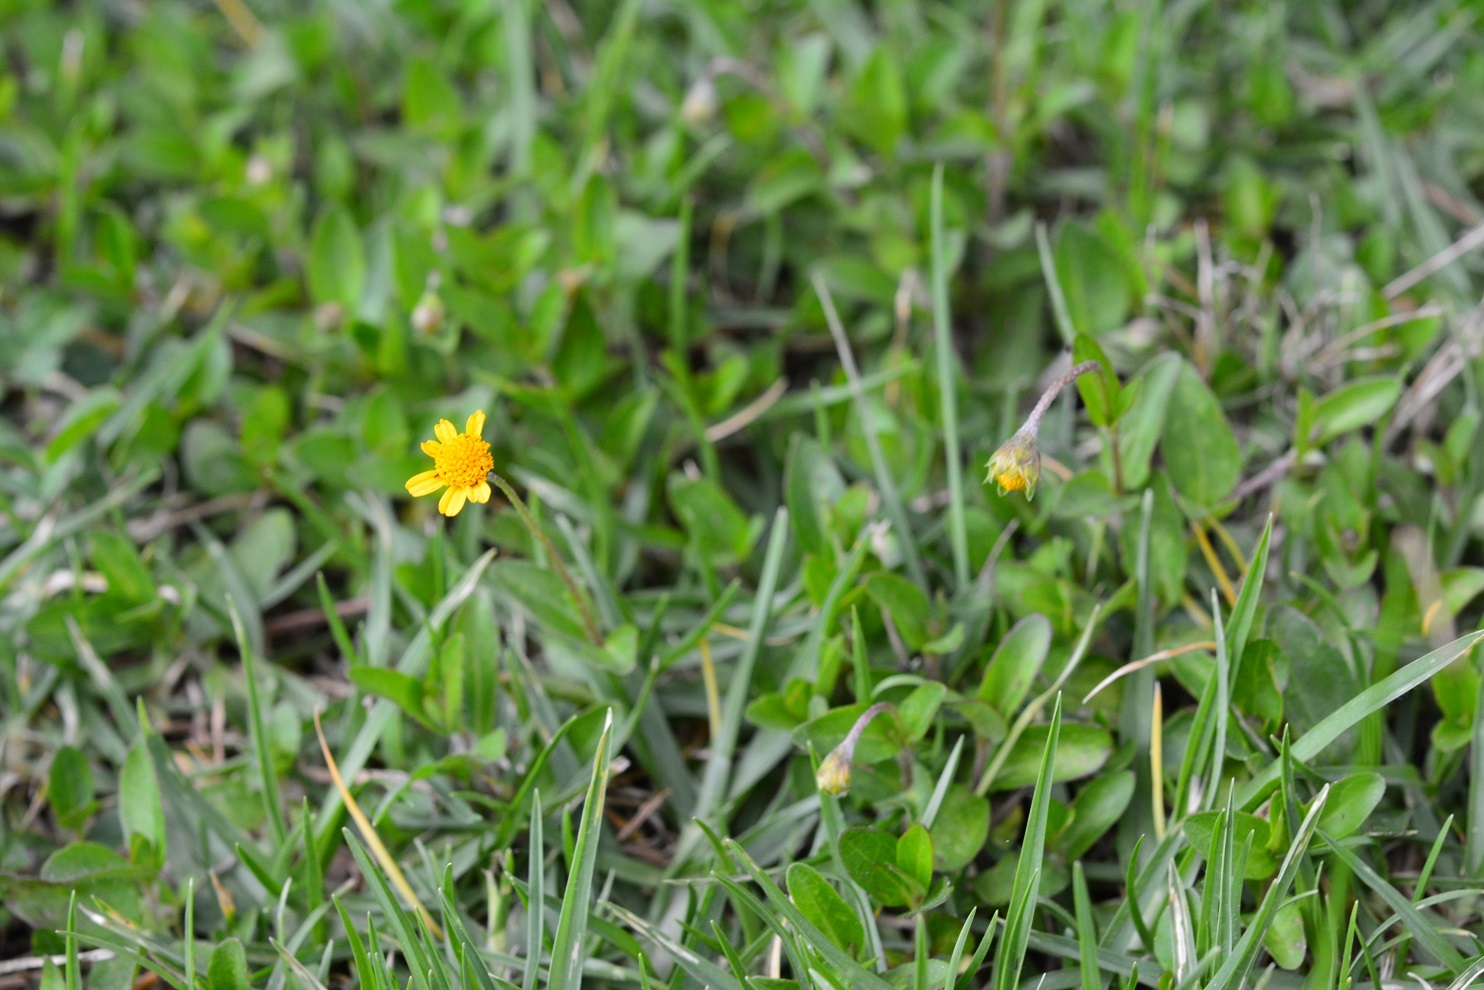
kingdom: Plantae
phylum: Tracheophyta
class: Magnoliopsida
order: Asterales
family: Asteraceae
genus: Acmella
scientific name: Acmella repens
